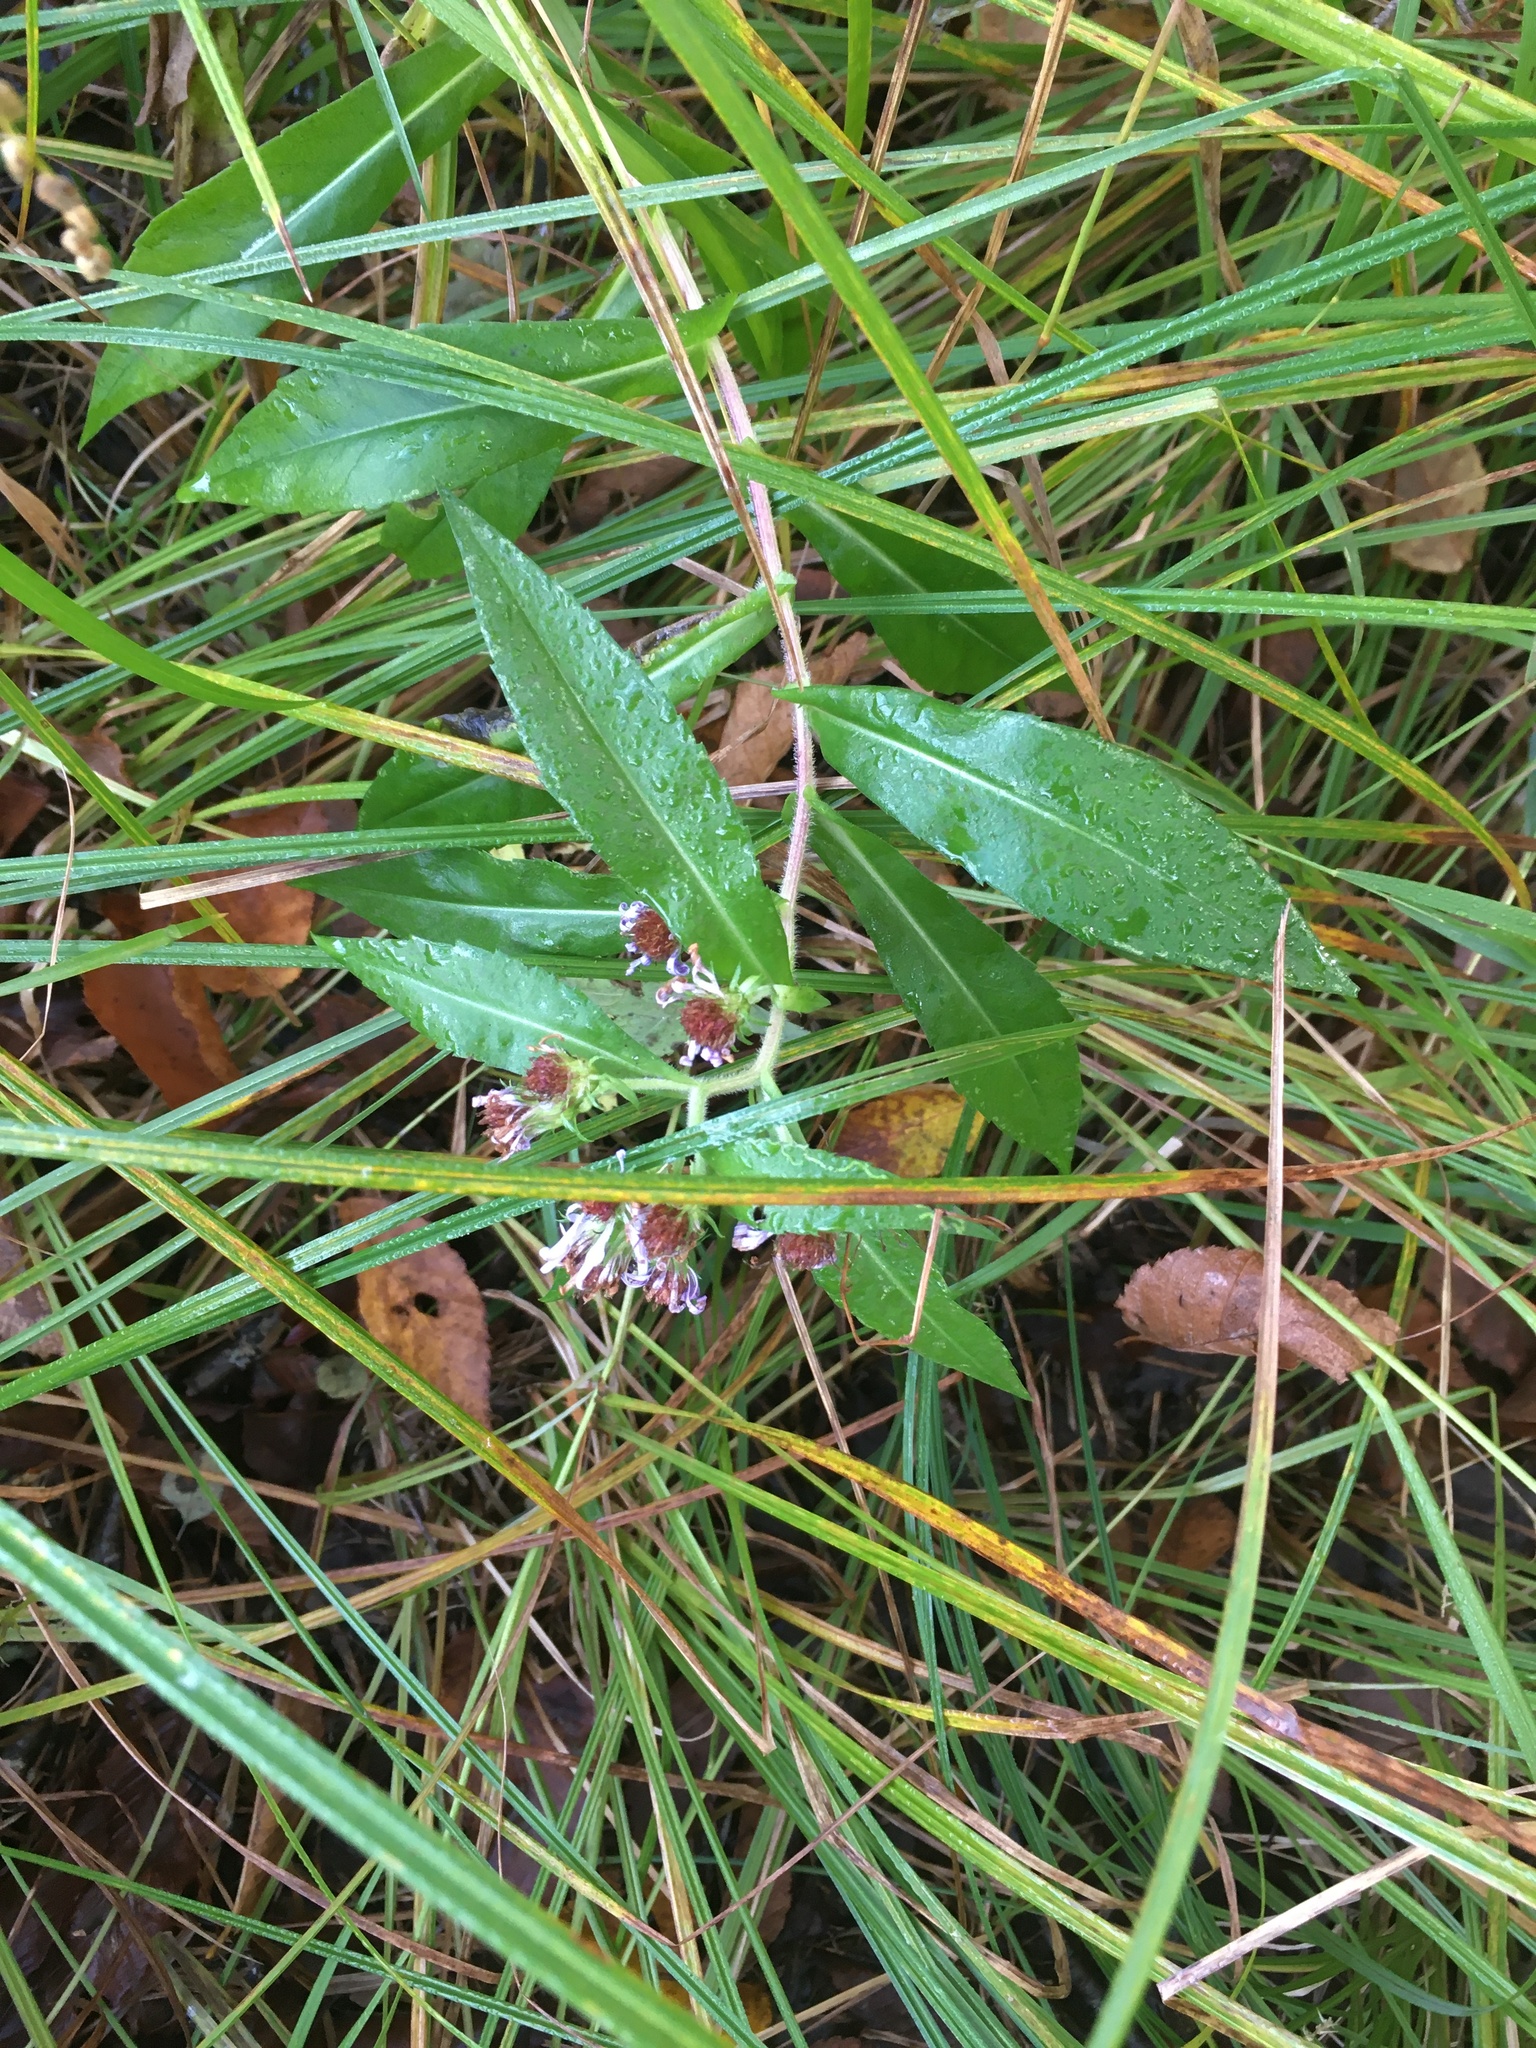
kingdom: Plantae
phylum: Tracheophyta
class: Magnoliopsida
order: Asterales
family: Asteraceae
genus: Symphyotrichum
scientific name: Symphyotrichum puniceum
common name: Bog aster
